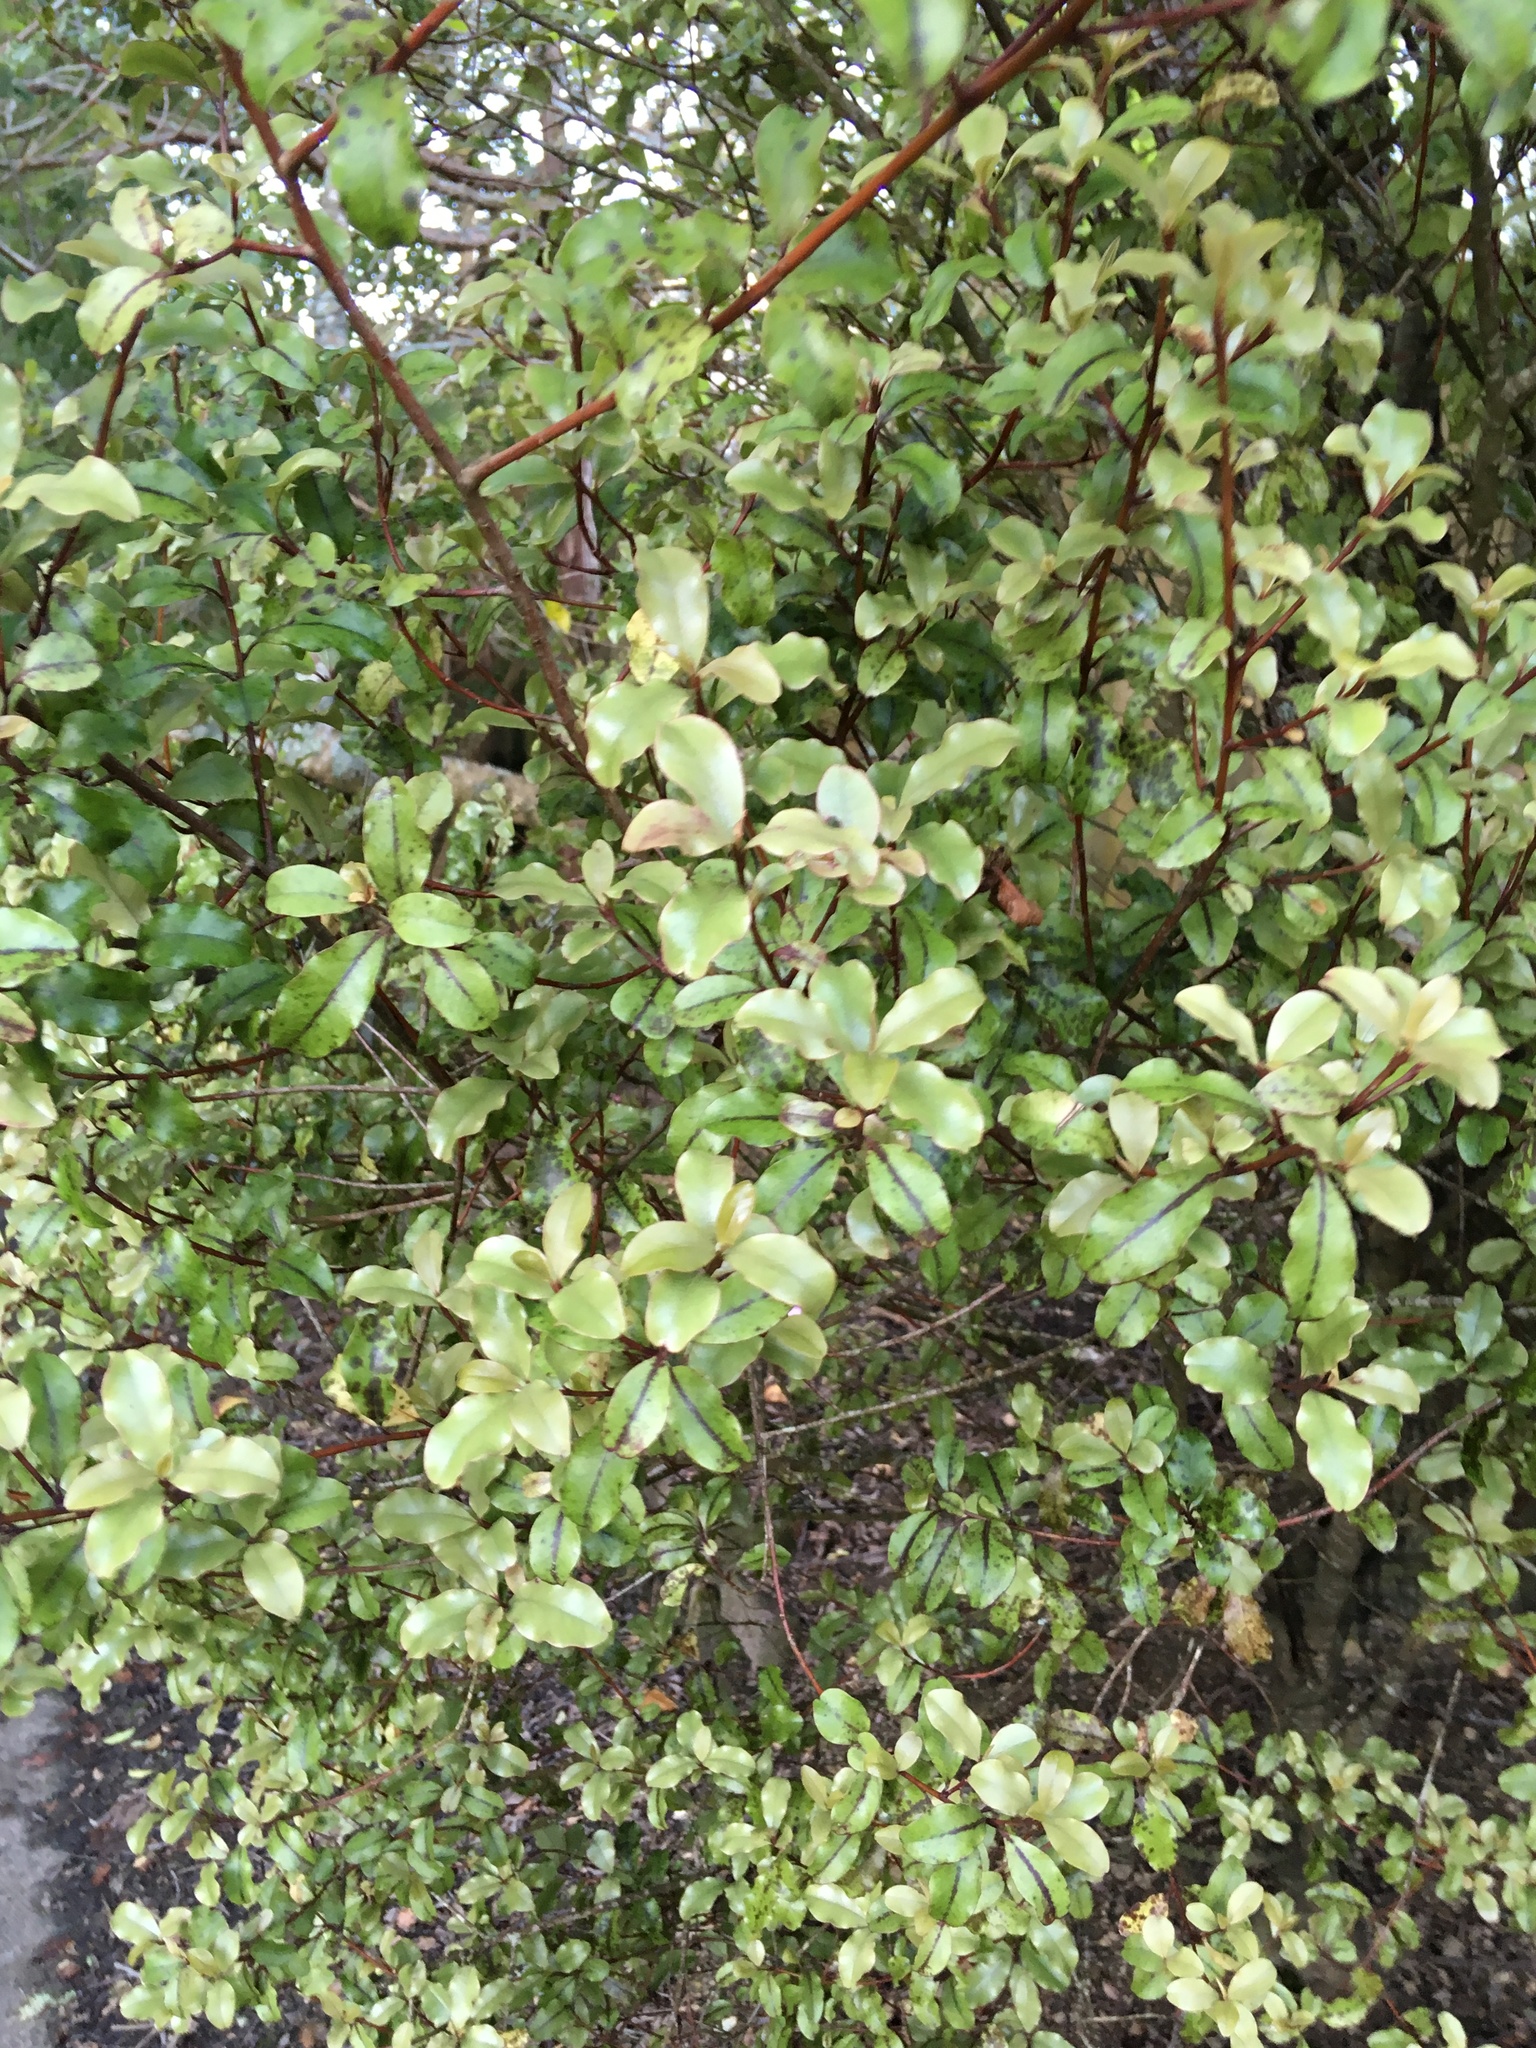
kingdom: Plantae
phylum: Tracheophyta
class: Magnoliopsida
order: Ericales
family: Primulaceae
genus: Myrsine
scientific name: Myrsine australis
